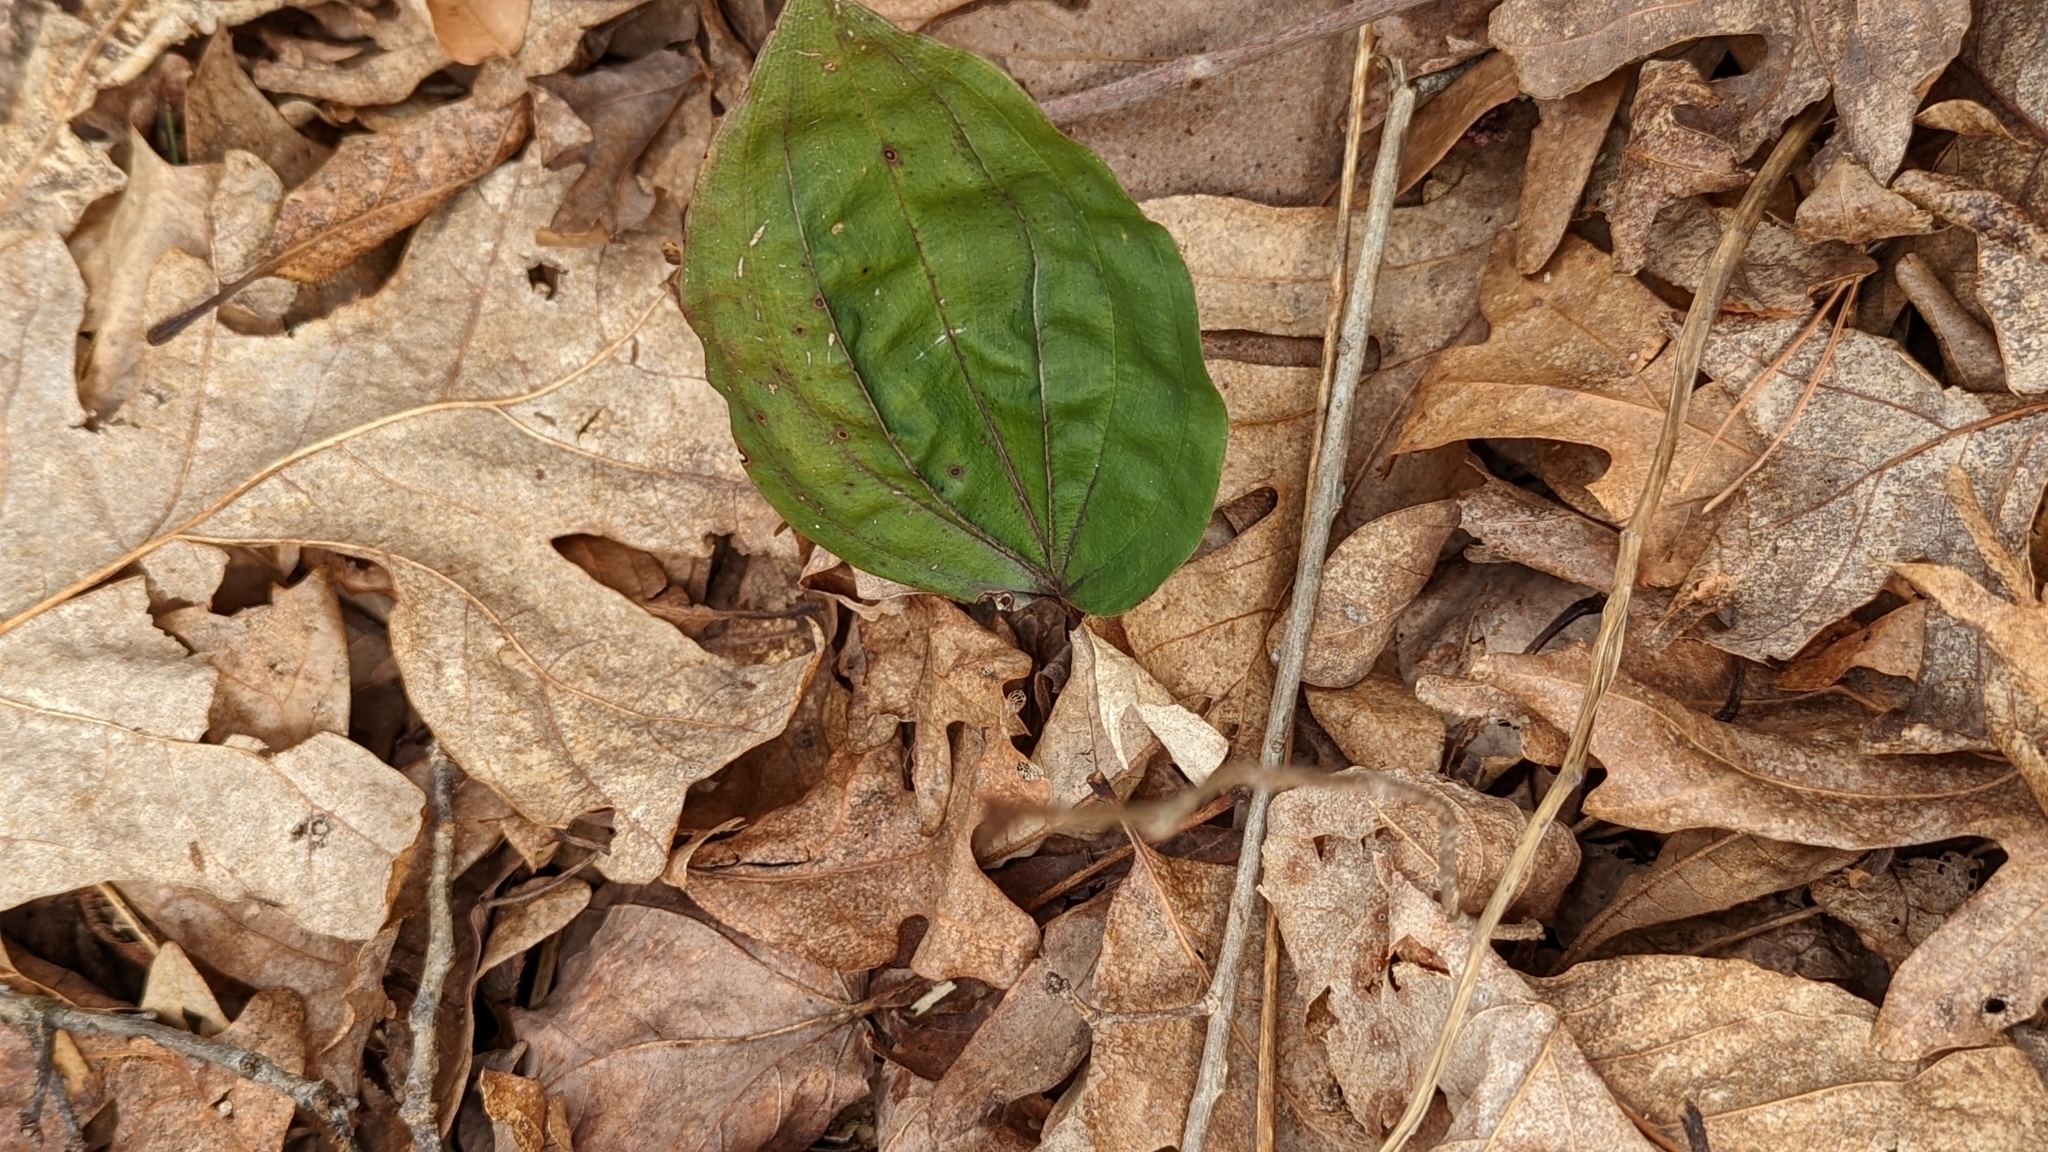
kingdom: Plantae
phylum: Tracheophyta
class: Liliopsida
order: Asparagales
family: Orchidaceae
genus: Tipularia
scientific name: Tipularia discolor
